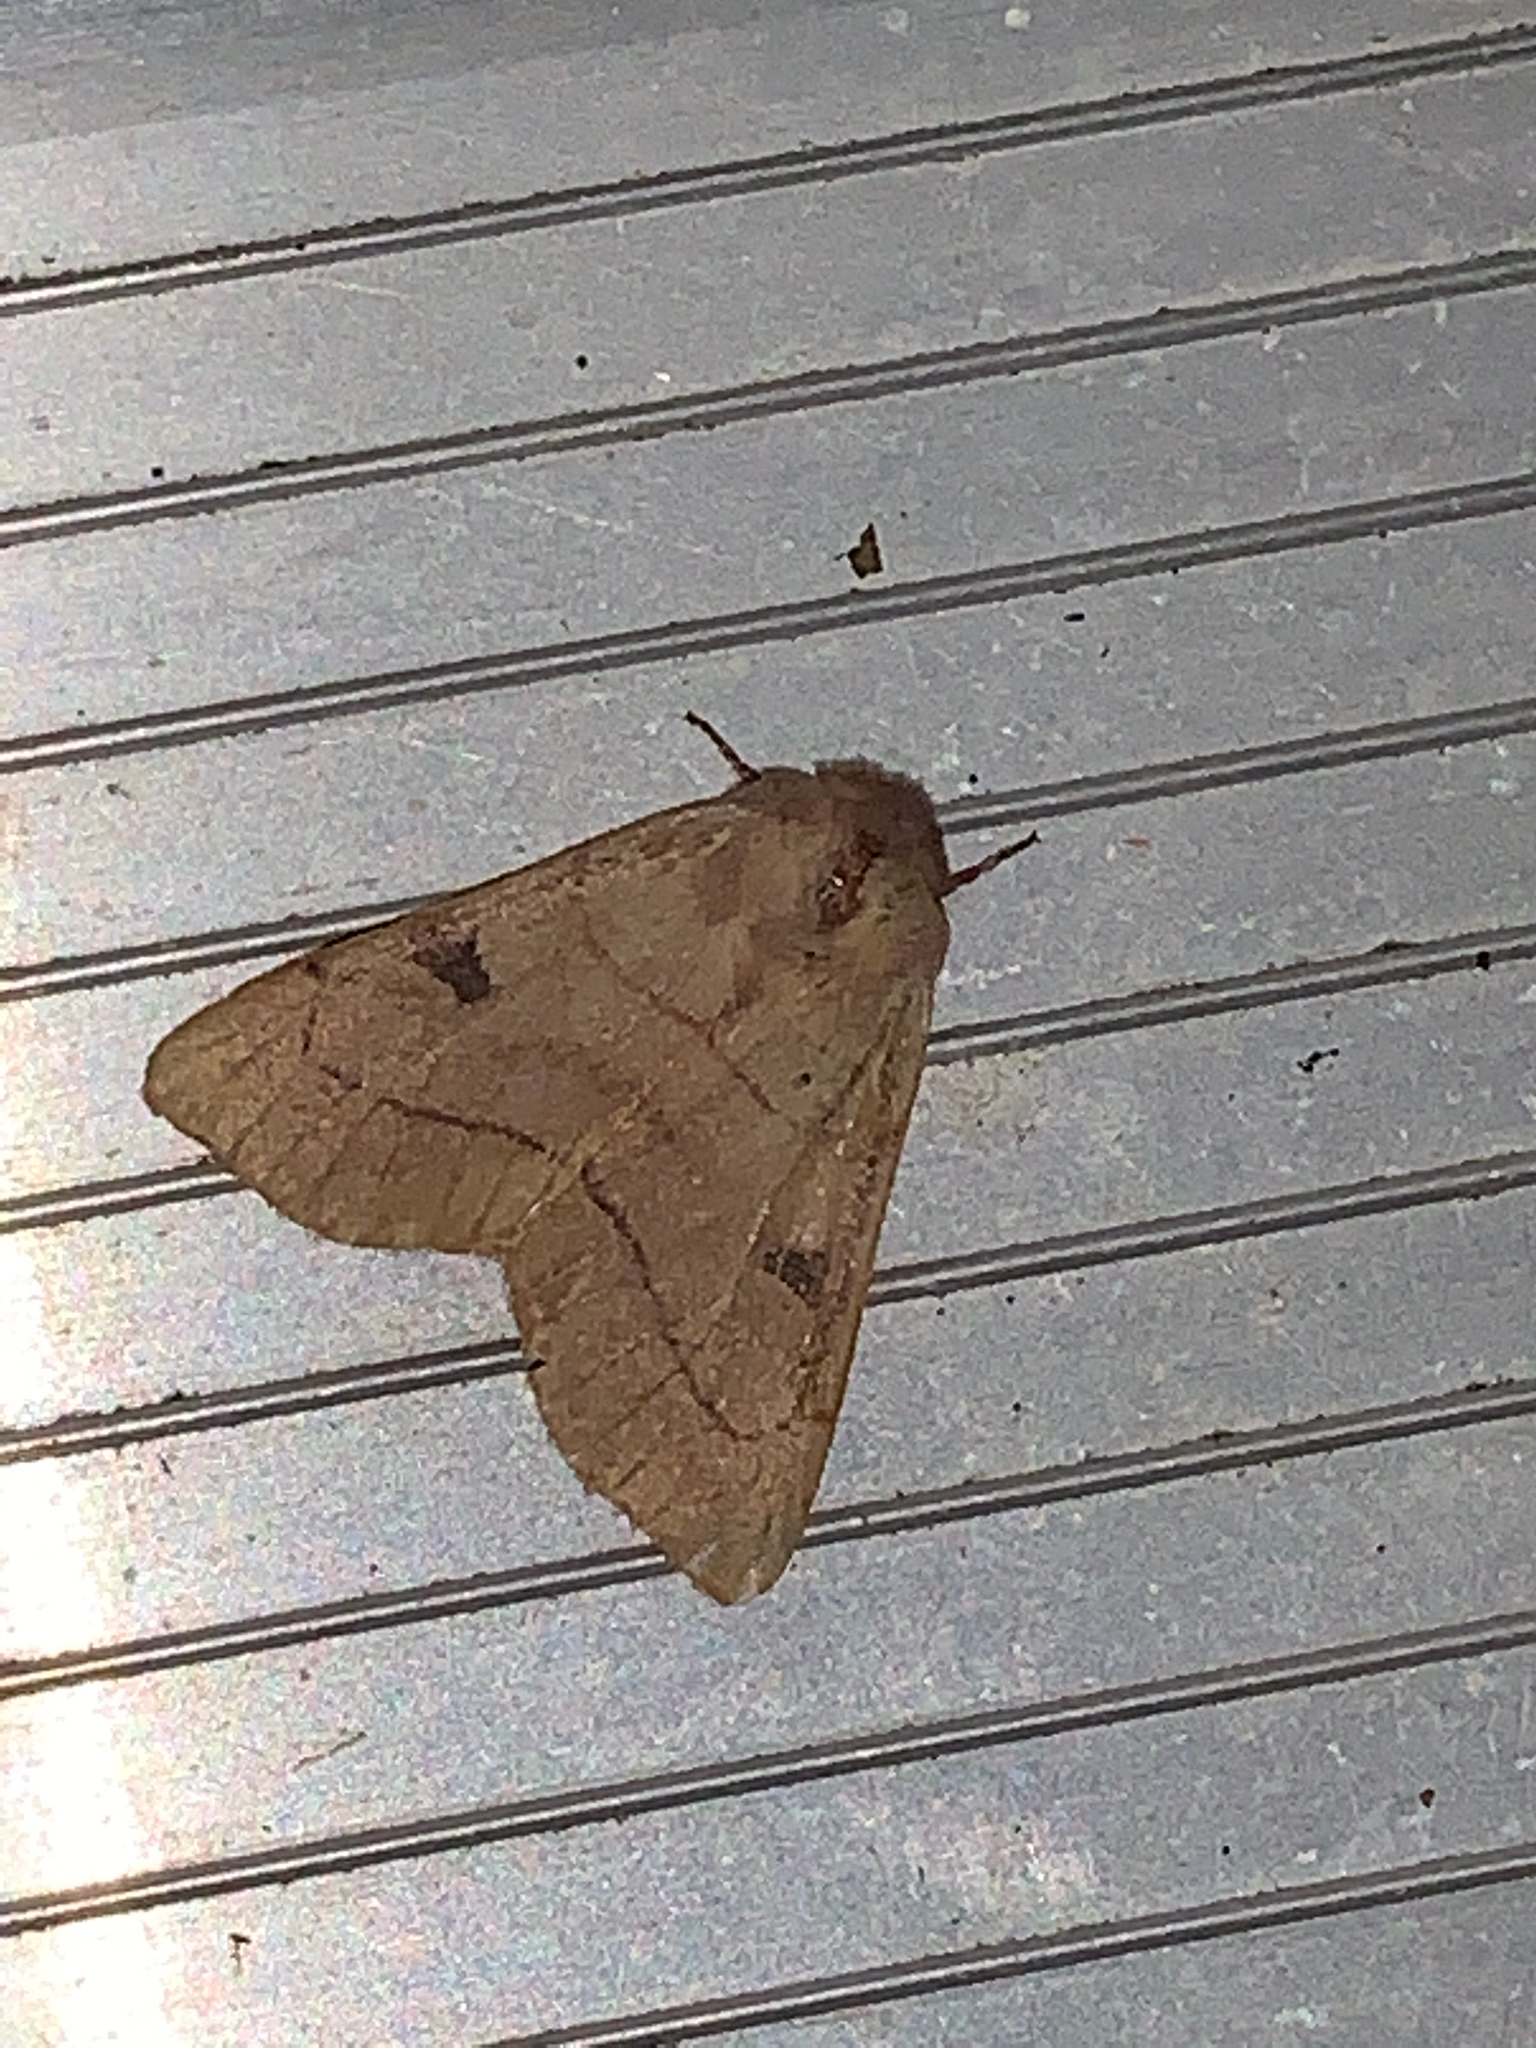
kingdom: Animalia
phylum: Arthropoda
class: Insecta
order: Lepidoptera
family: Noctuidae
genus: Choephora
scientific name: Choephora fungorum
